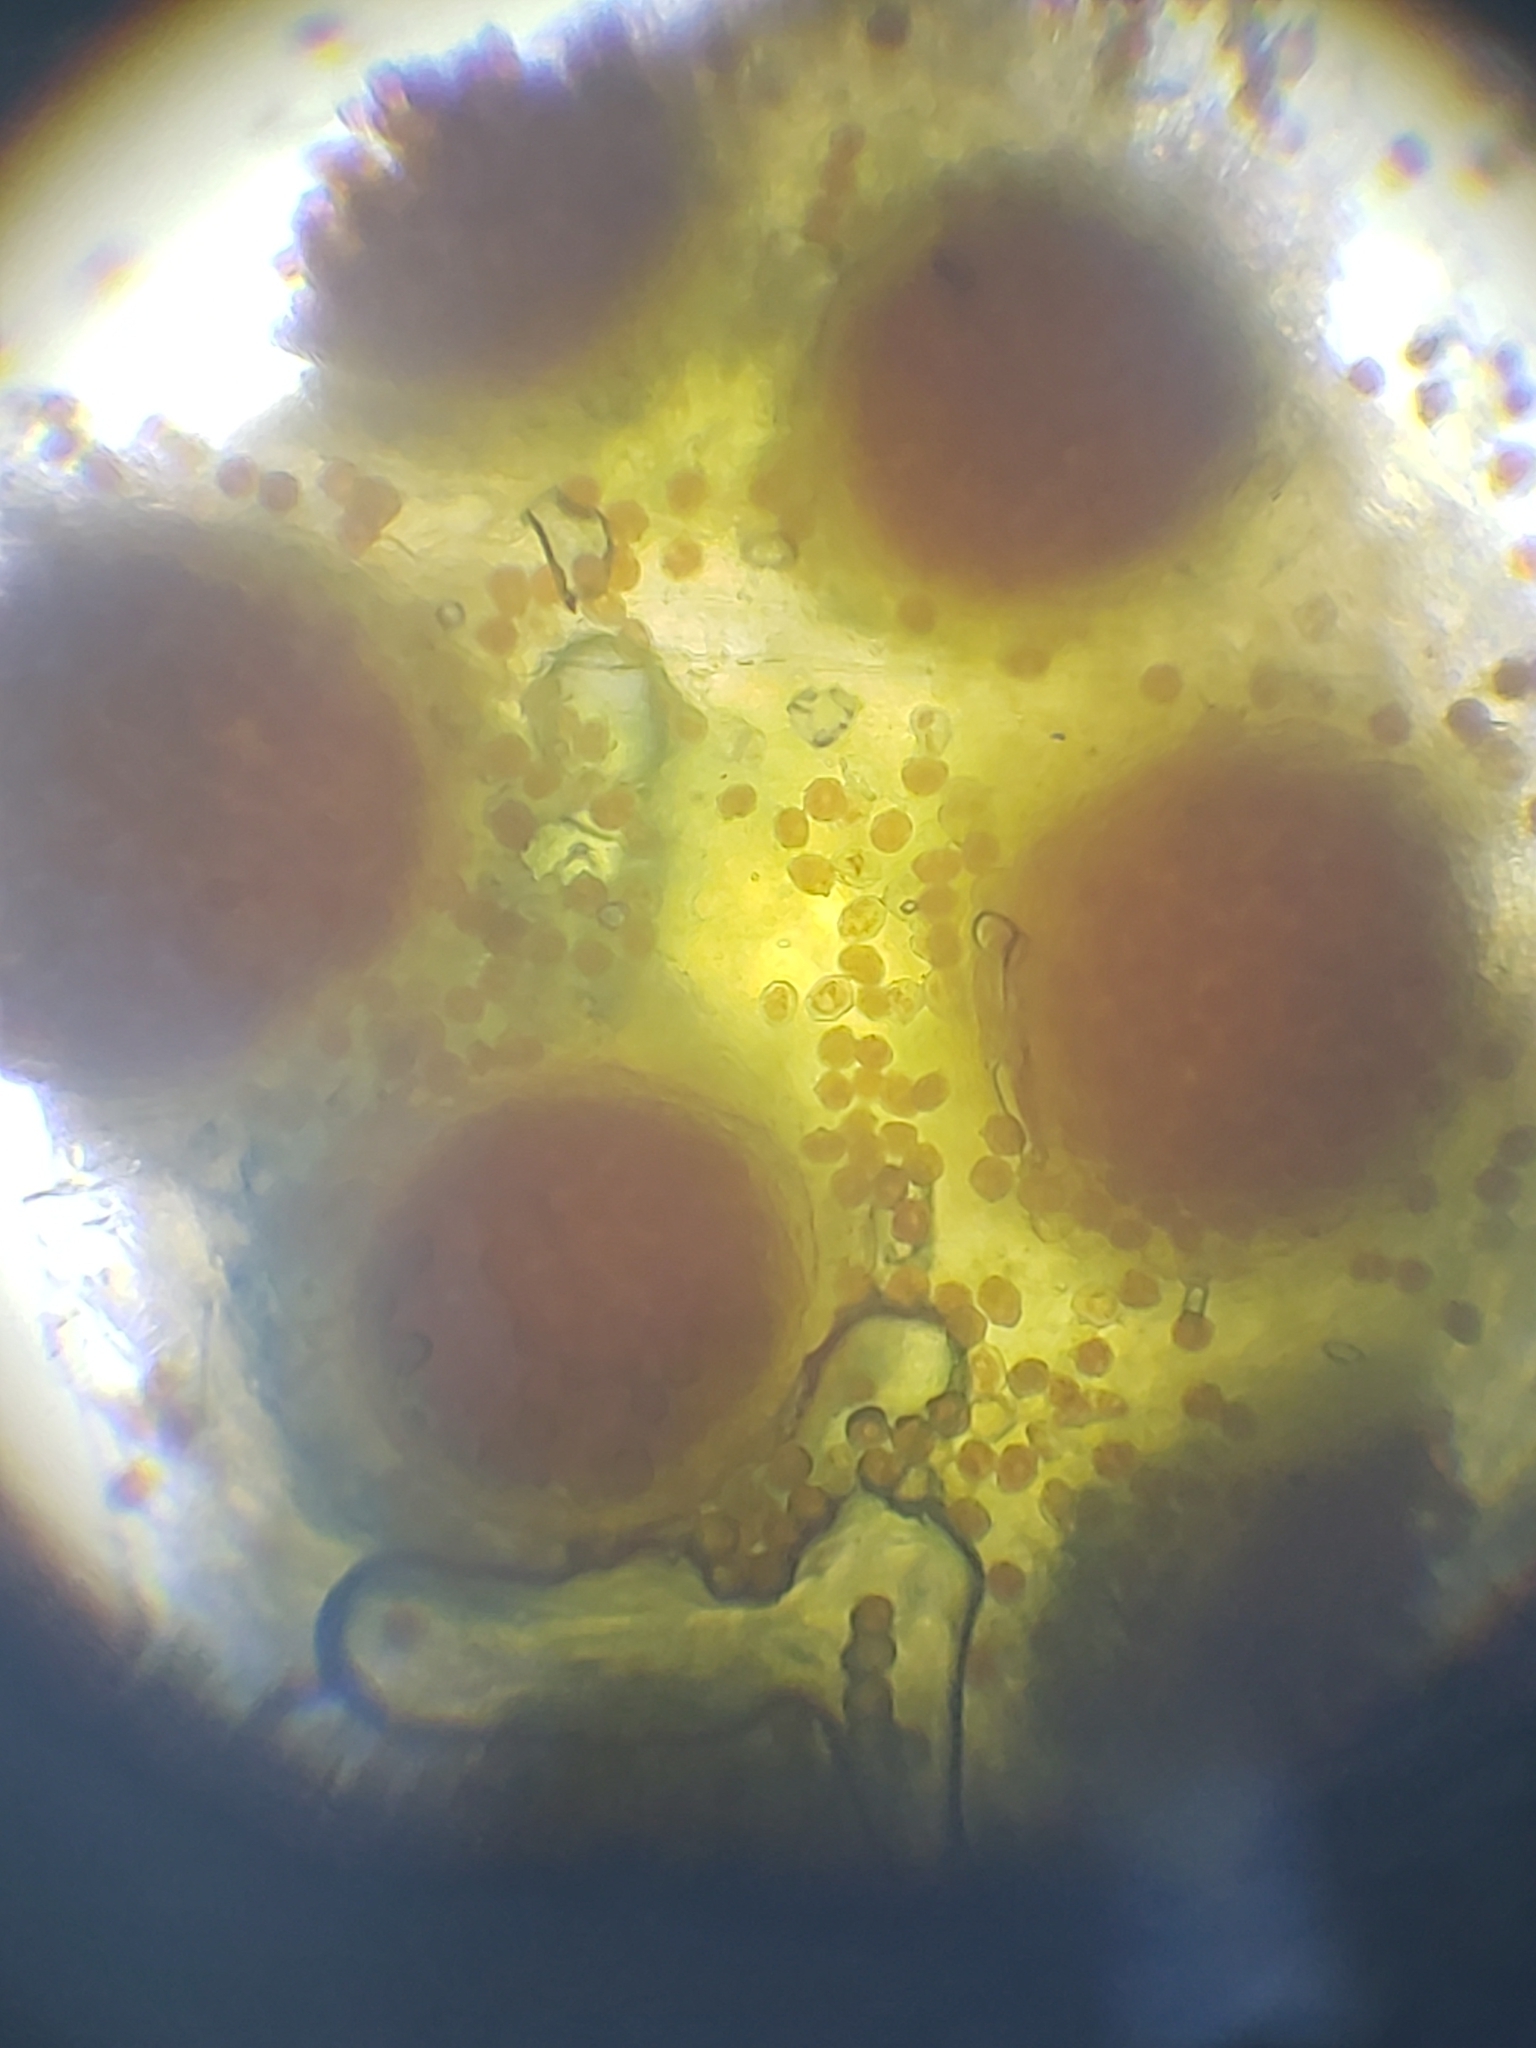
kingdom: Fungi
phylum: Basidiomycota
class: Pucciniomycetes
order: Pucciniales
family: Pucciniaceae
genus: Puccinia
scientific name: Puccinia podophylli
